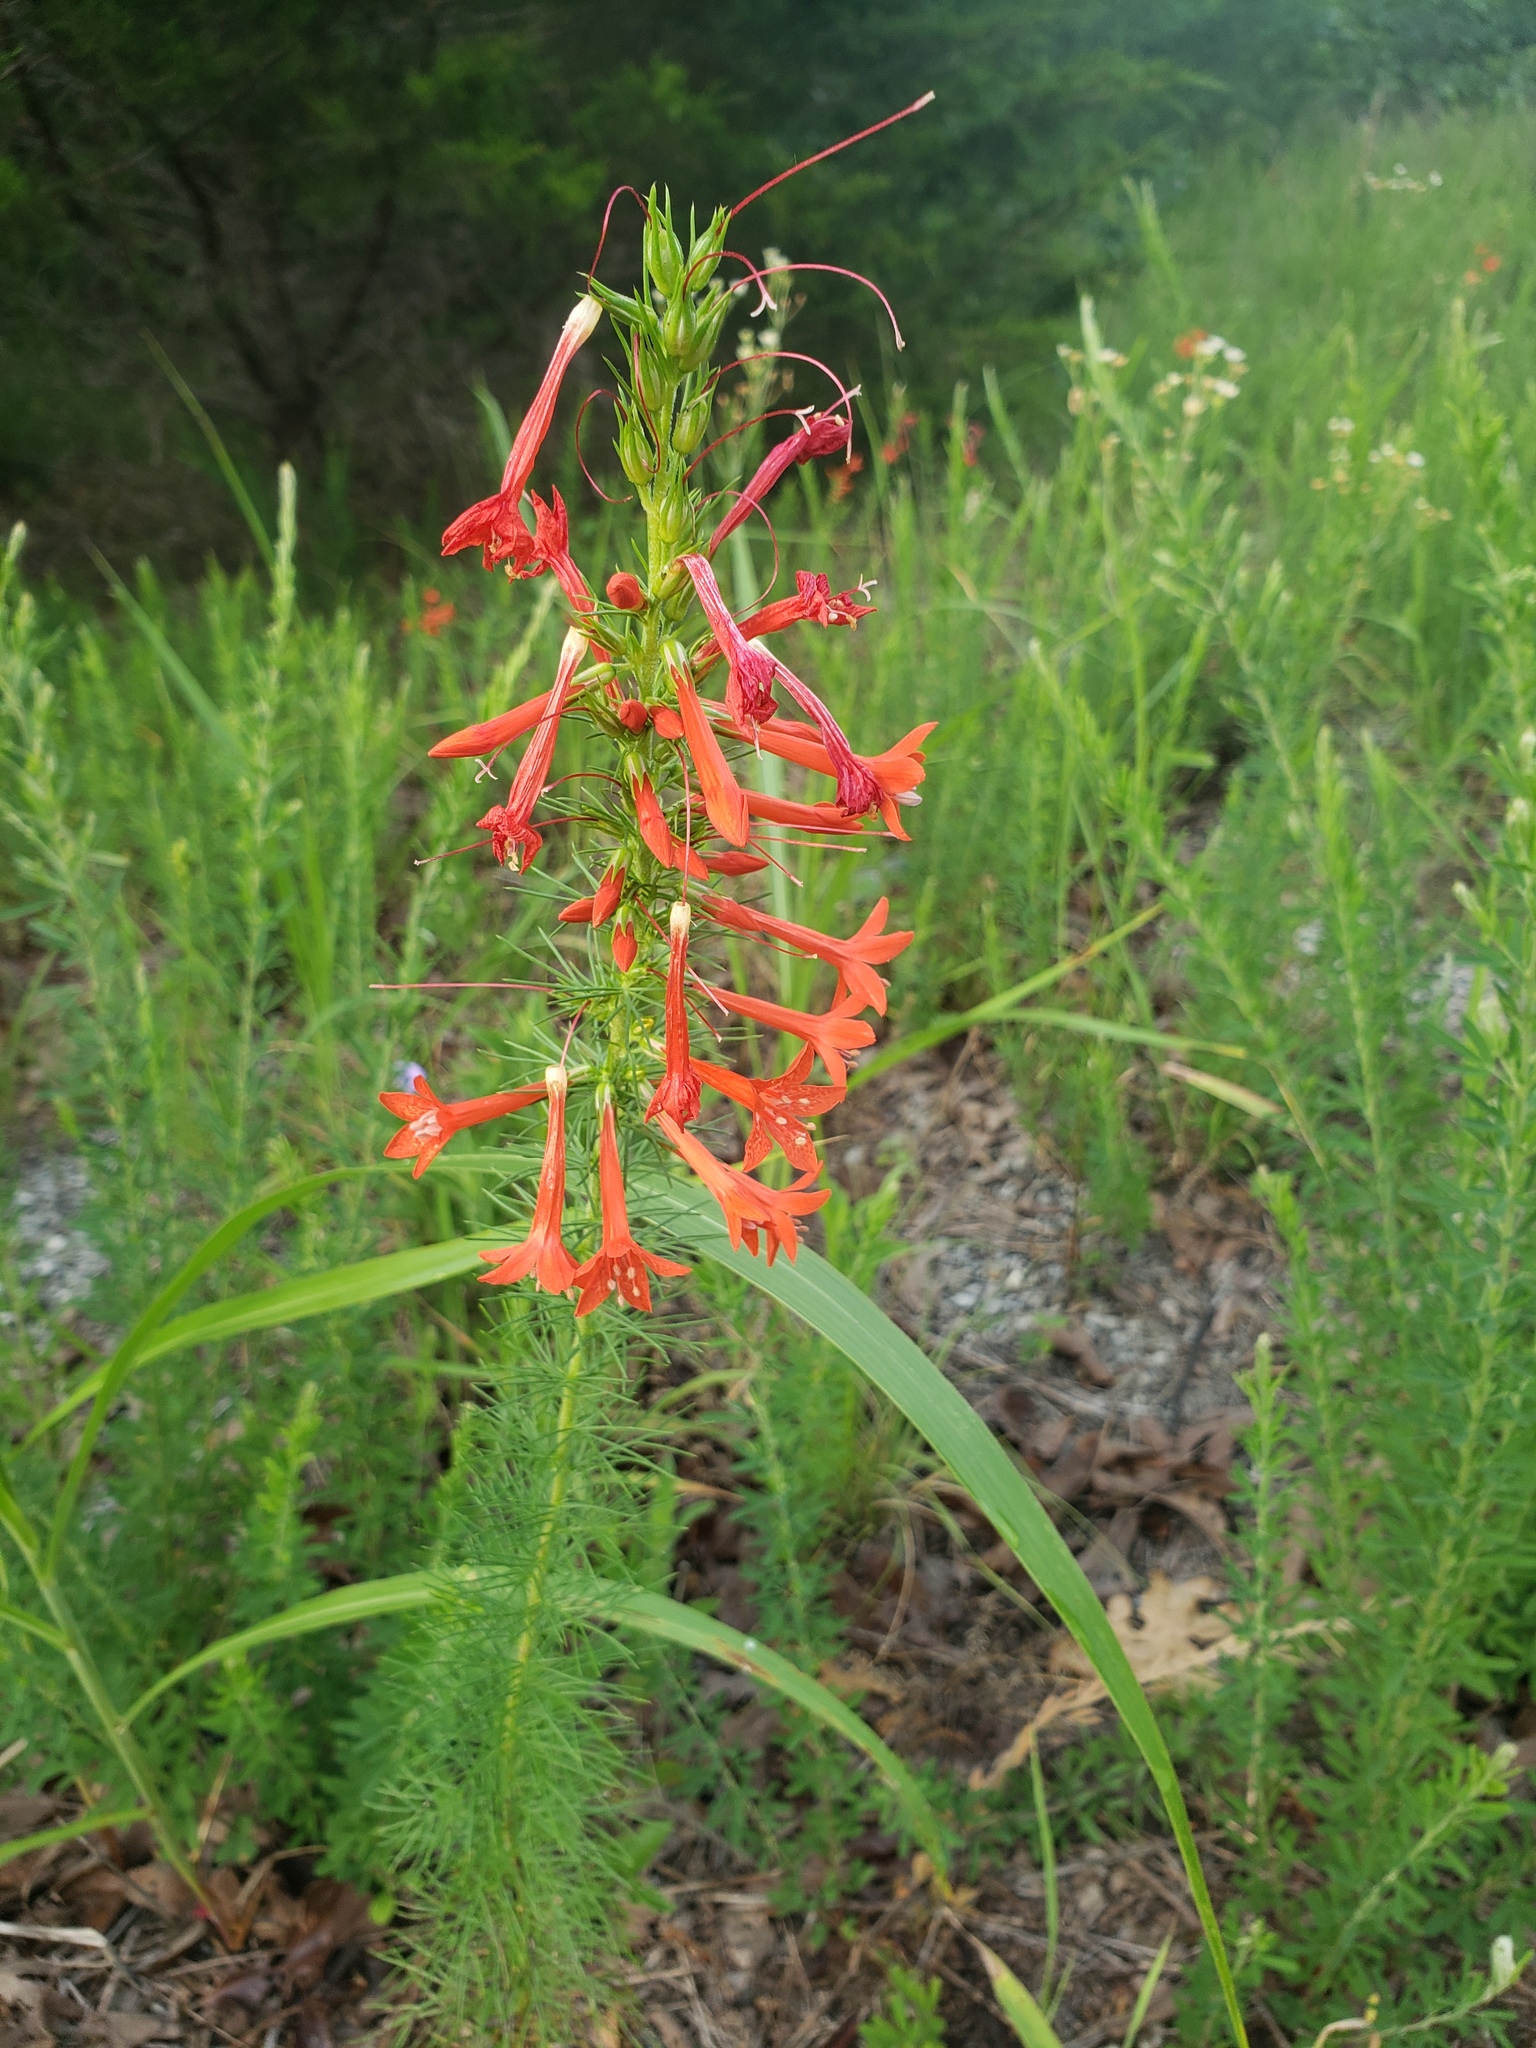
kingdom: Plantae
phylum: Tracheophyta
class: Magnoliopsida
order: Ericales
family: Polemoniaceae
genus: Ipomopsis
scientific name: Ipomopsis rubra
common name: Skyrocket
